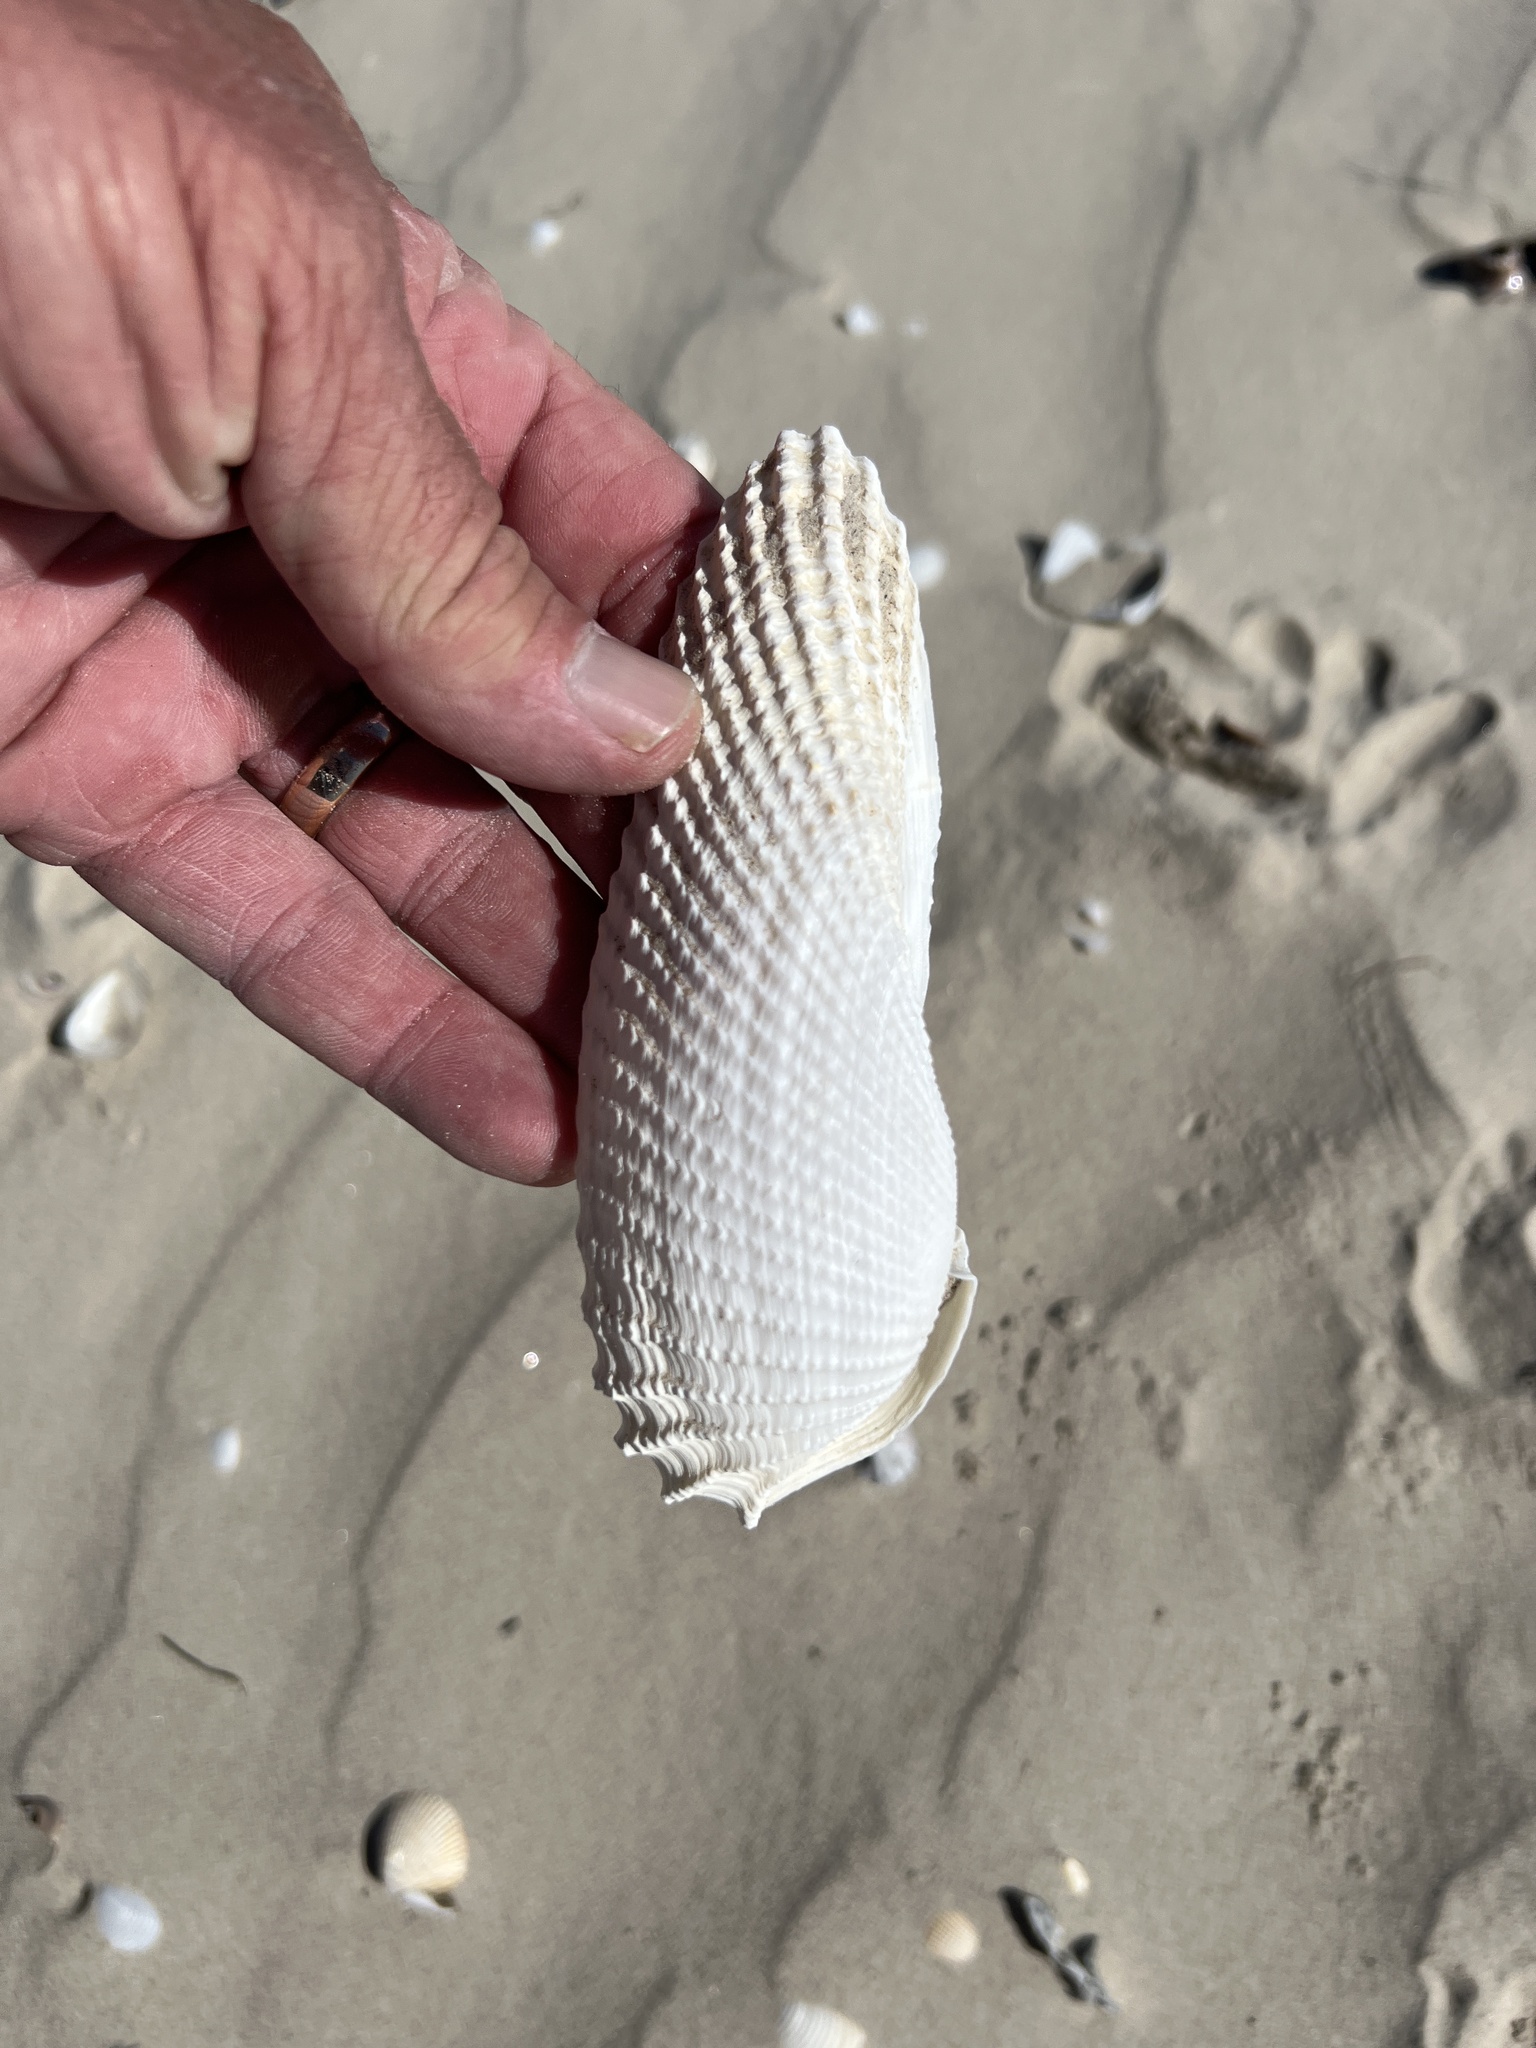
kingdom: Animalia
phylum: Mollusca
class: Bivalvia
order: Myida
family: Pholadidae
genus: Cyrtopleura
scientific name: Cyrtopleura costata
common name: Angel wing
